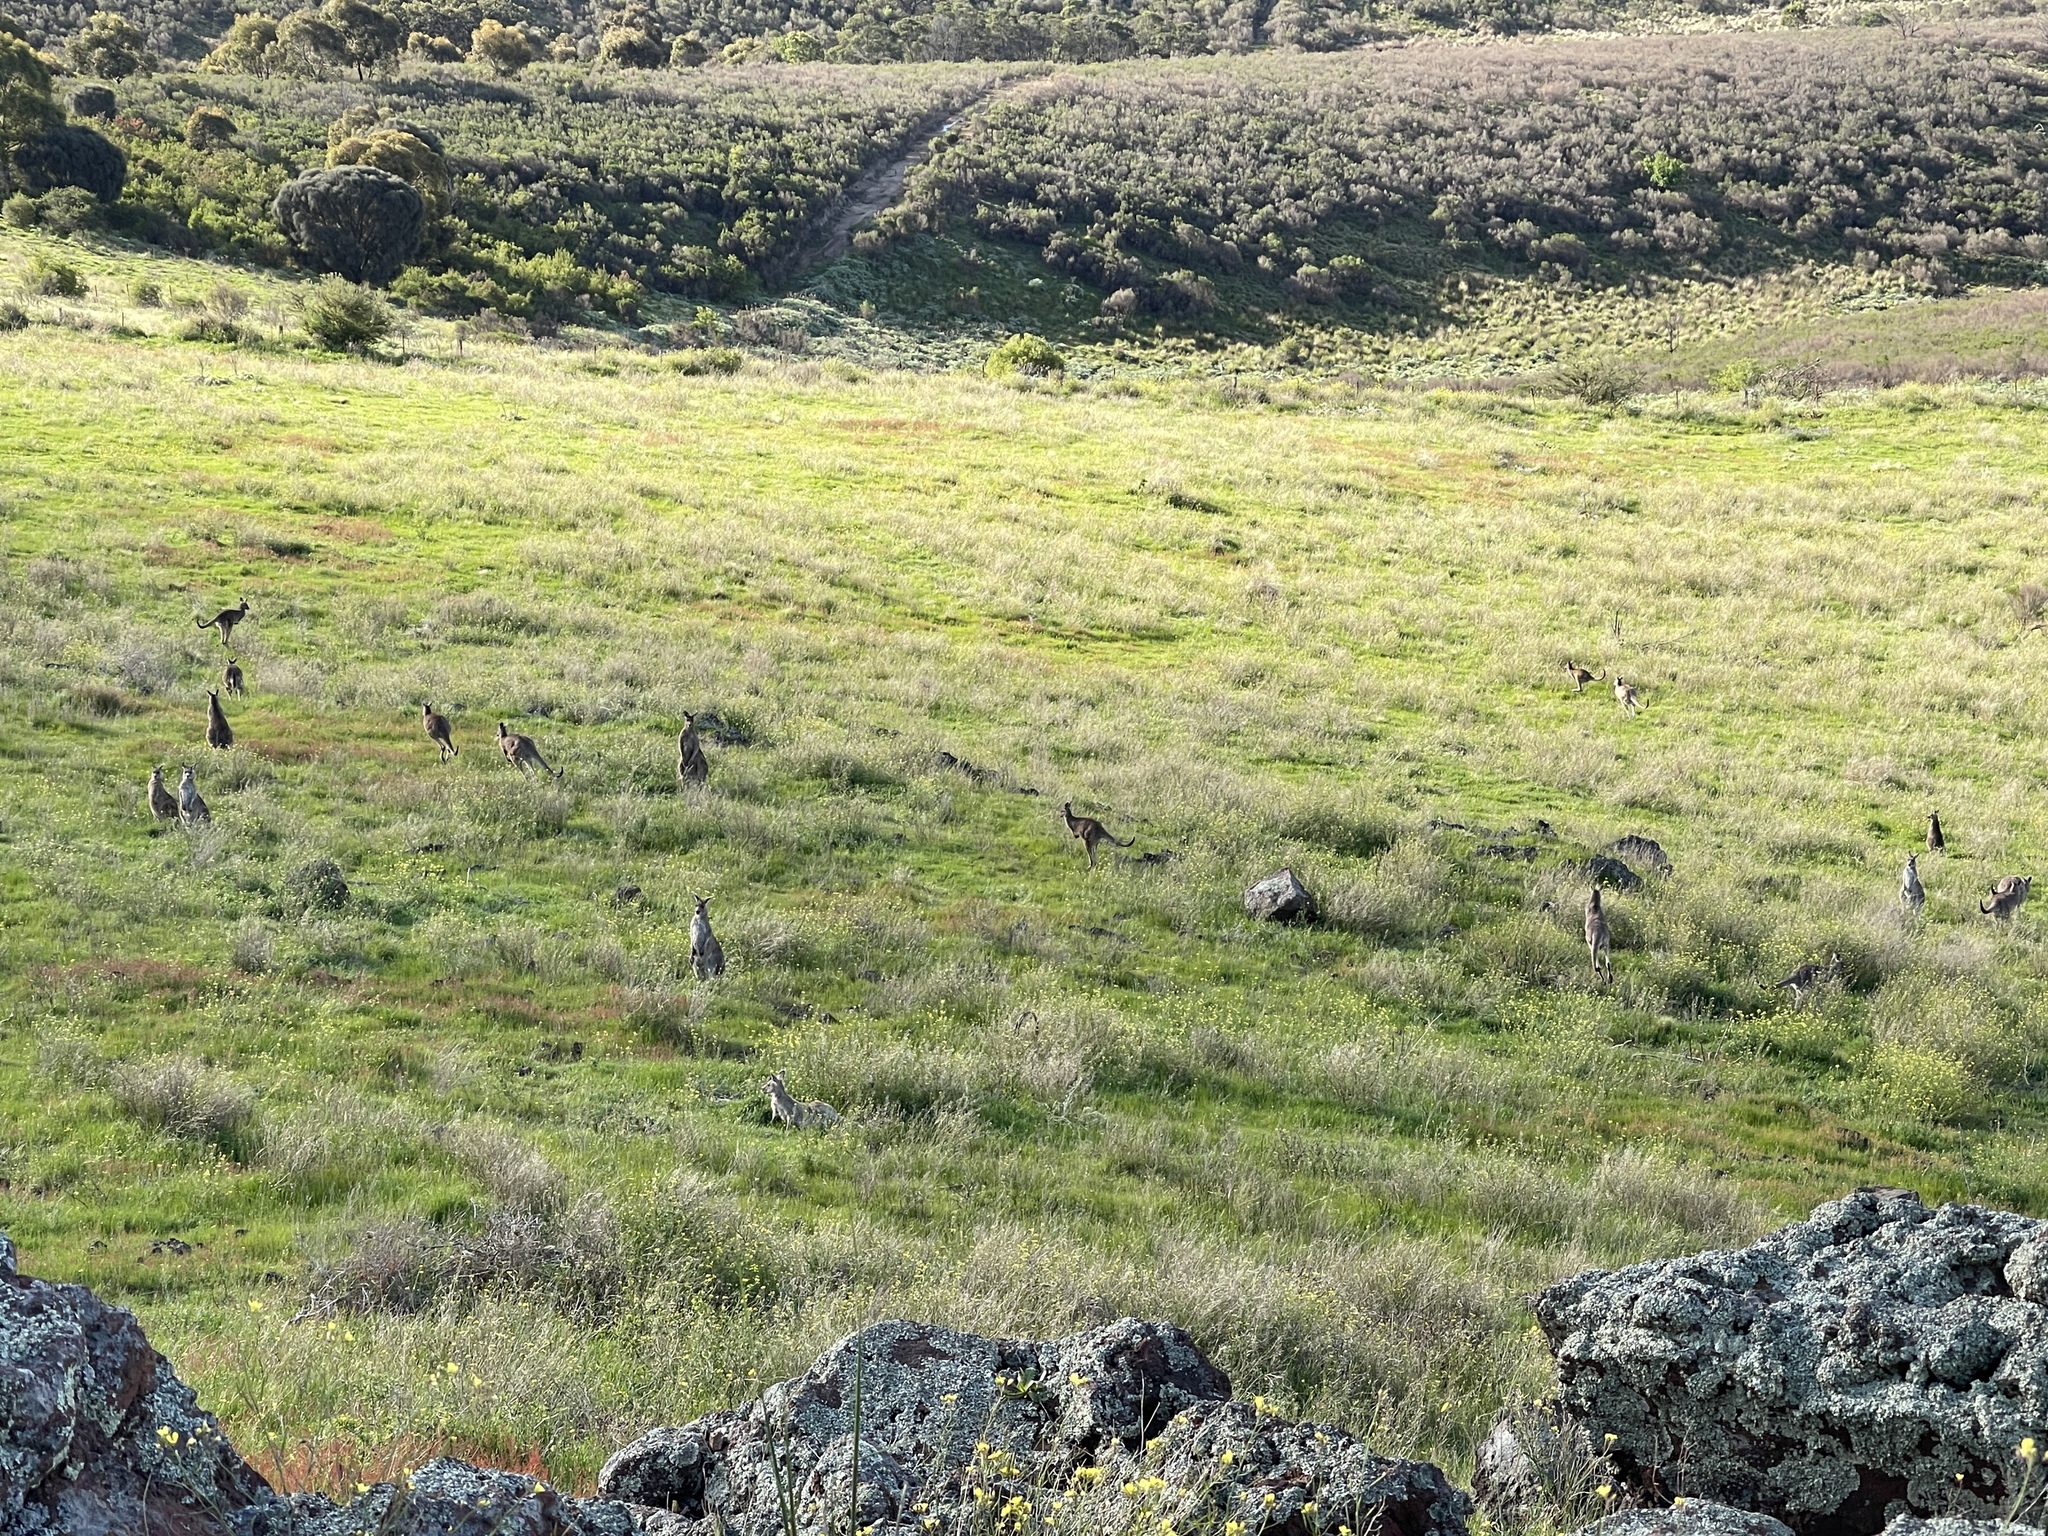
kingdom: Animalia
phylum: Chordata
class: Mammalia
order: Diprotodontia
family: Macropodidae
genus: Macropus
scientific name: Macropus giganteus
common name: Eastern grey kangaroo
